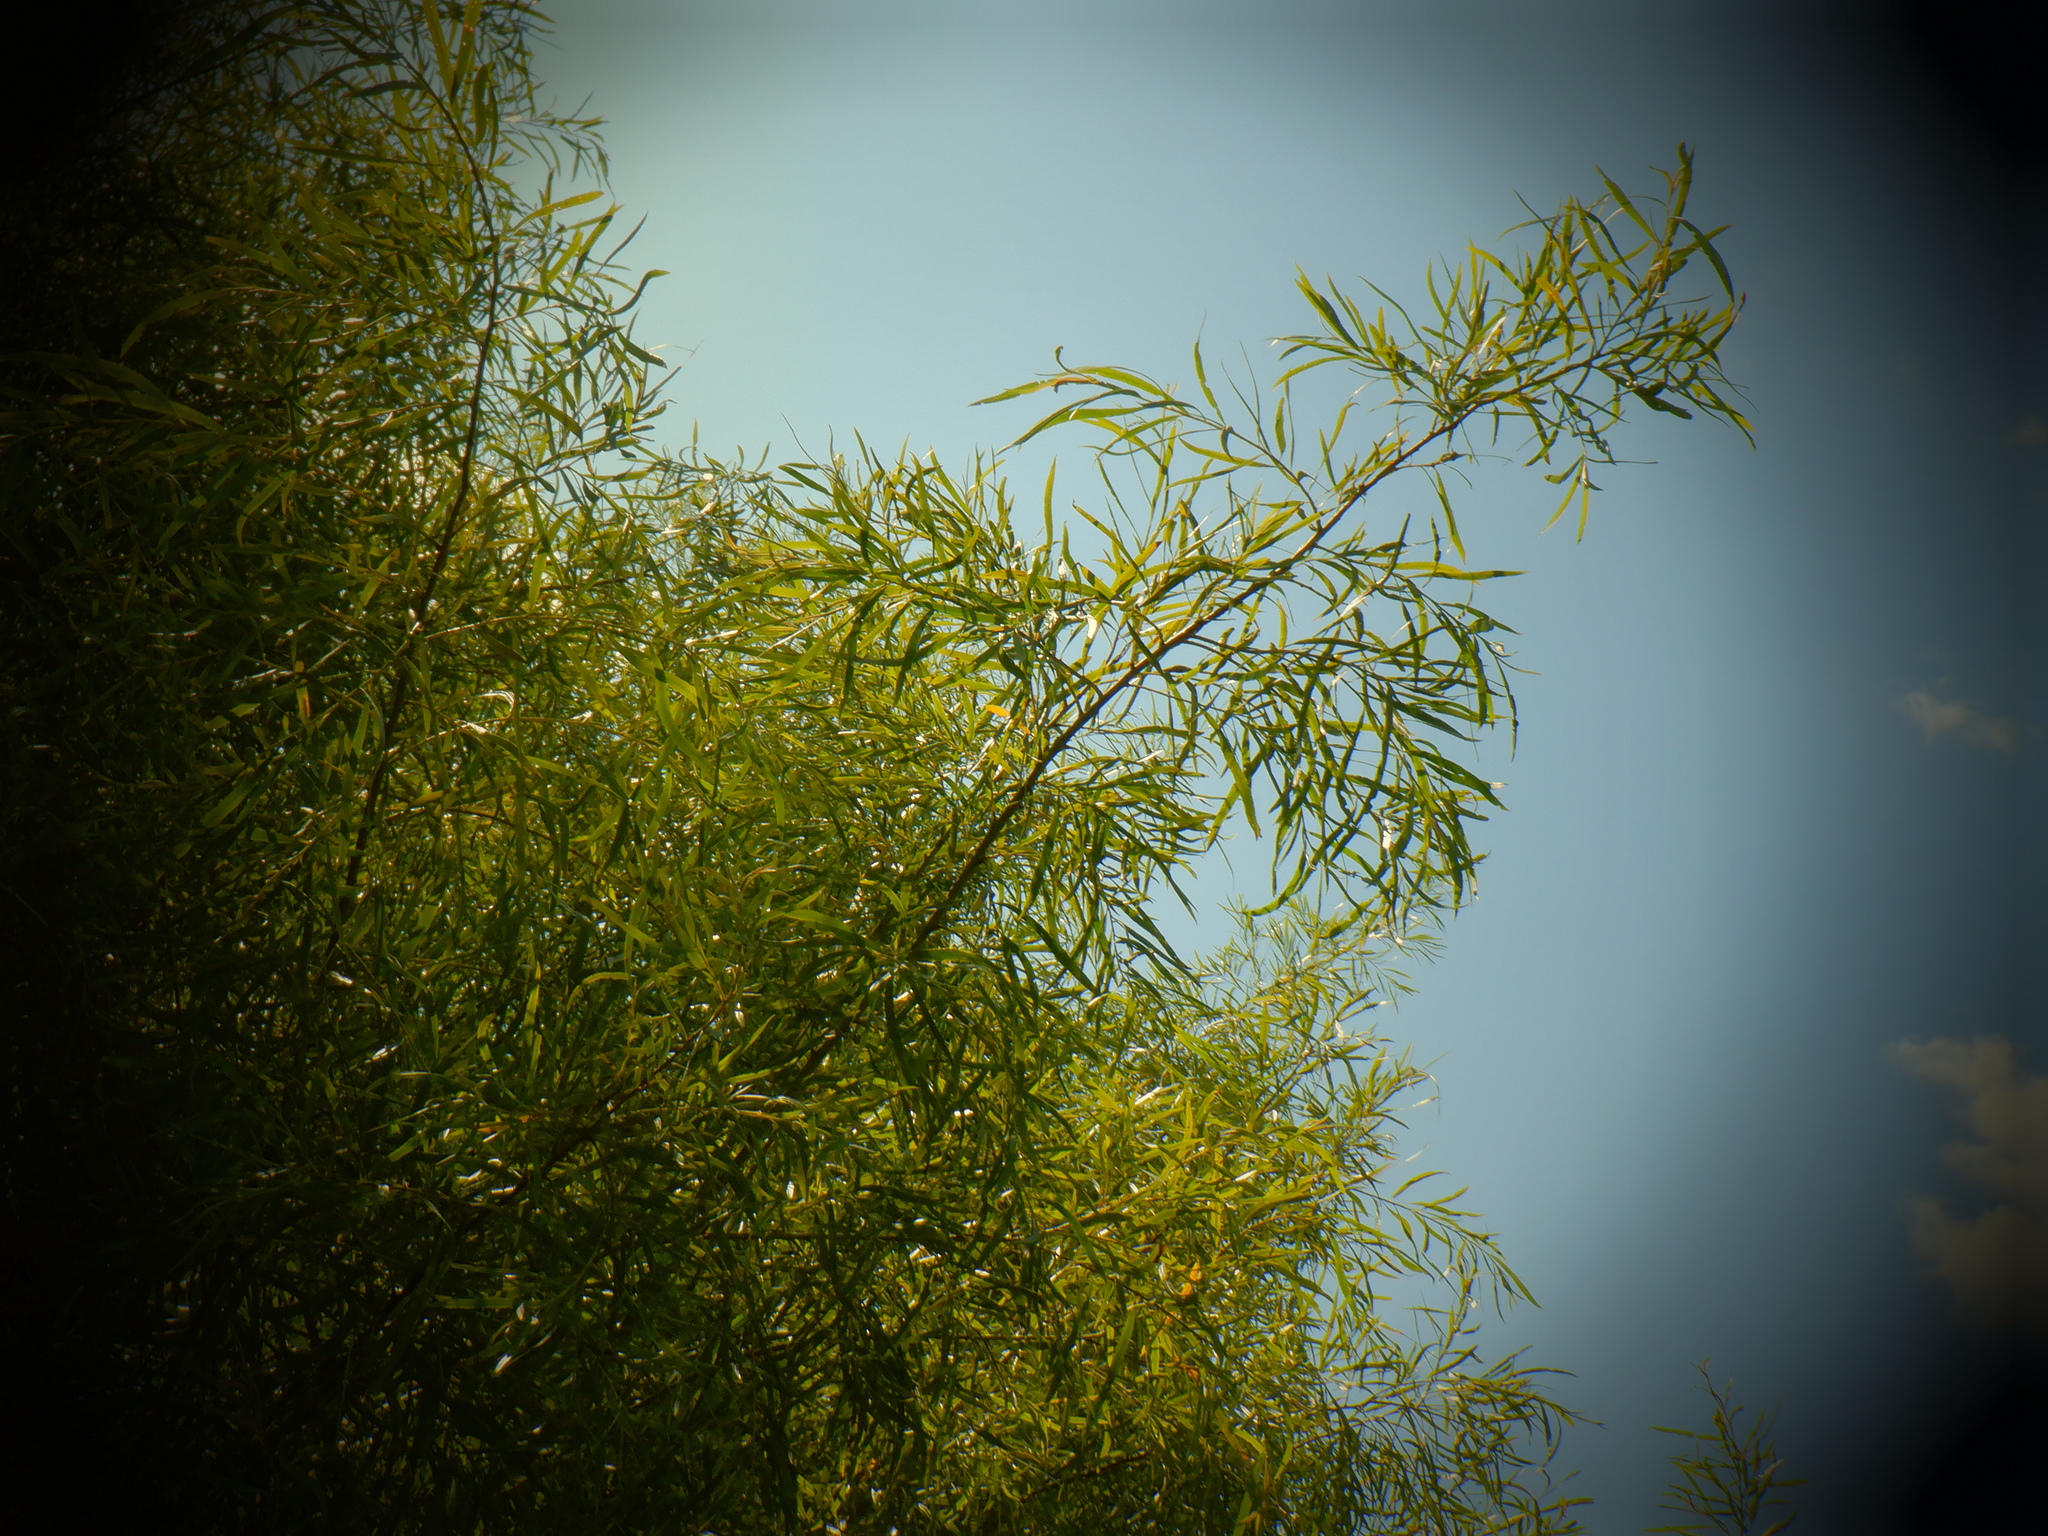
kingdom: Plantae
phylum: Tracheophyta
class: Magnoliopsida
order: Malpighiales
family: Salicaceae
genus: Salix
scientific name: Salix interior
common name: Sandbar willow
